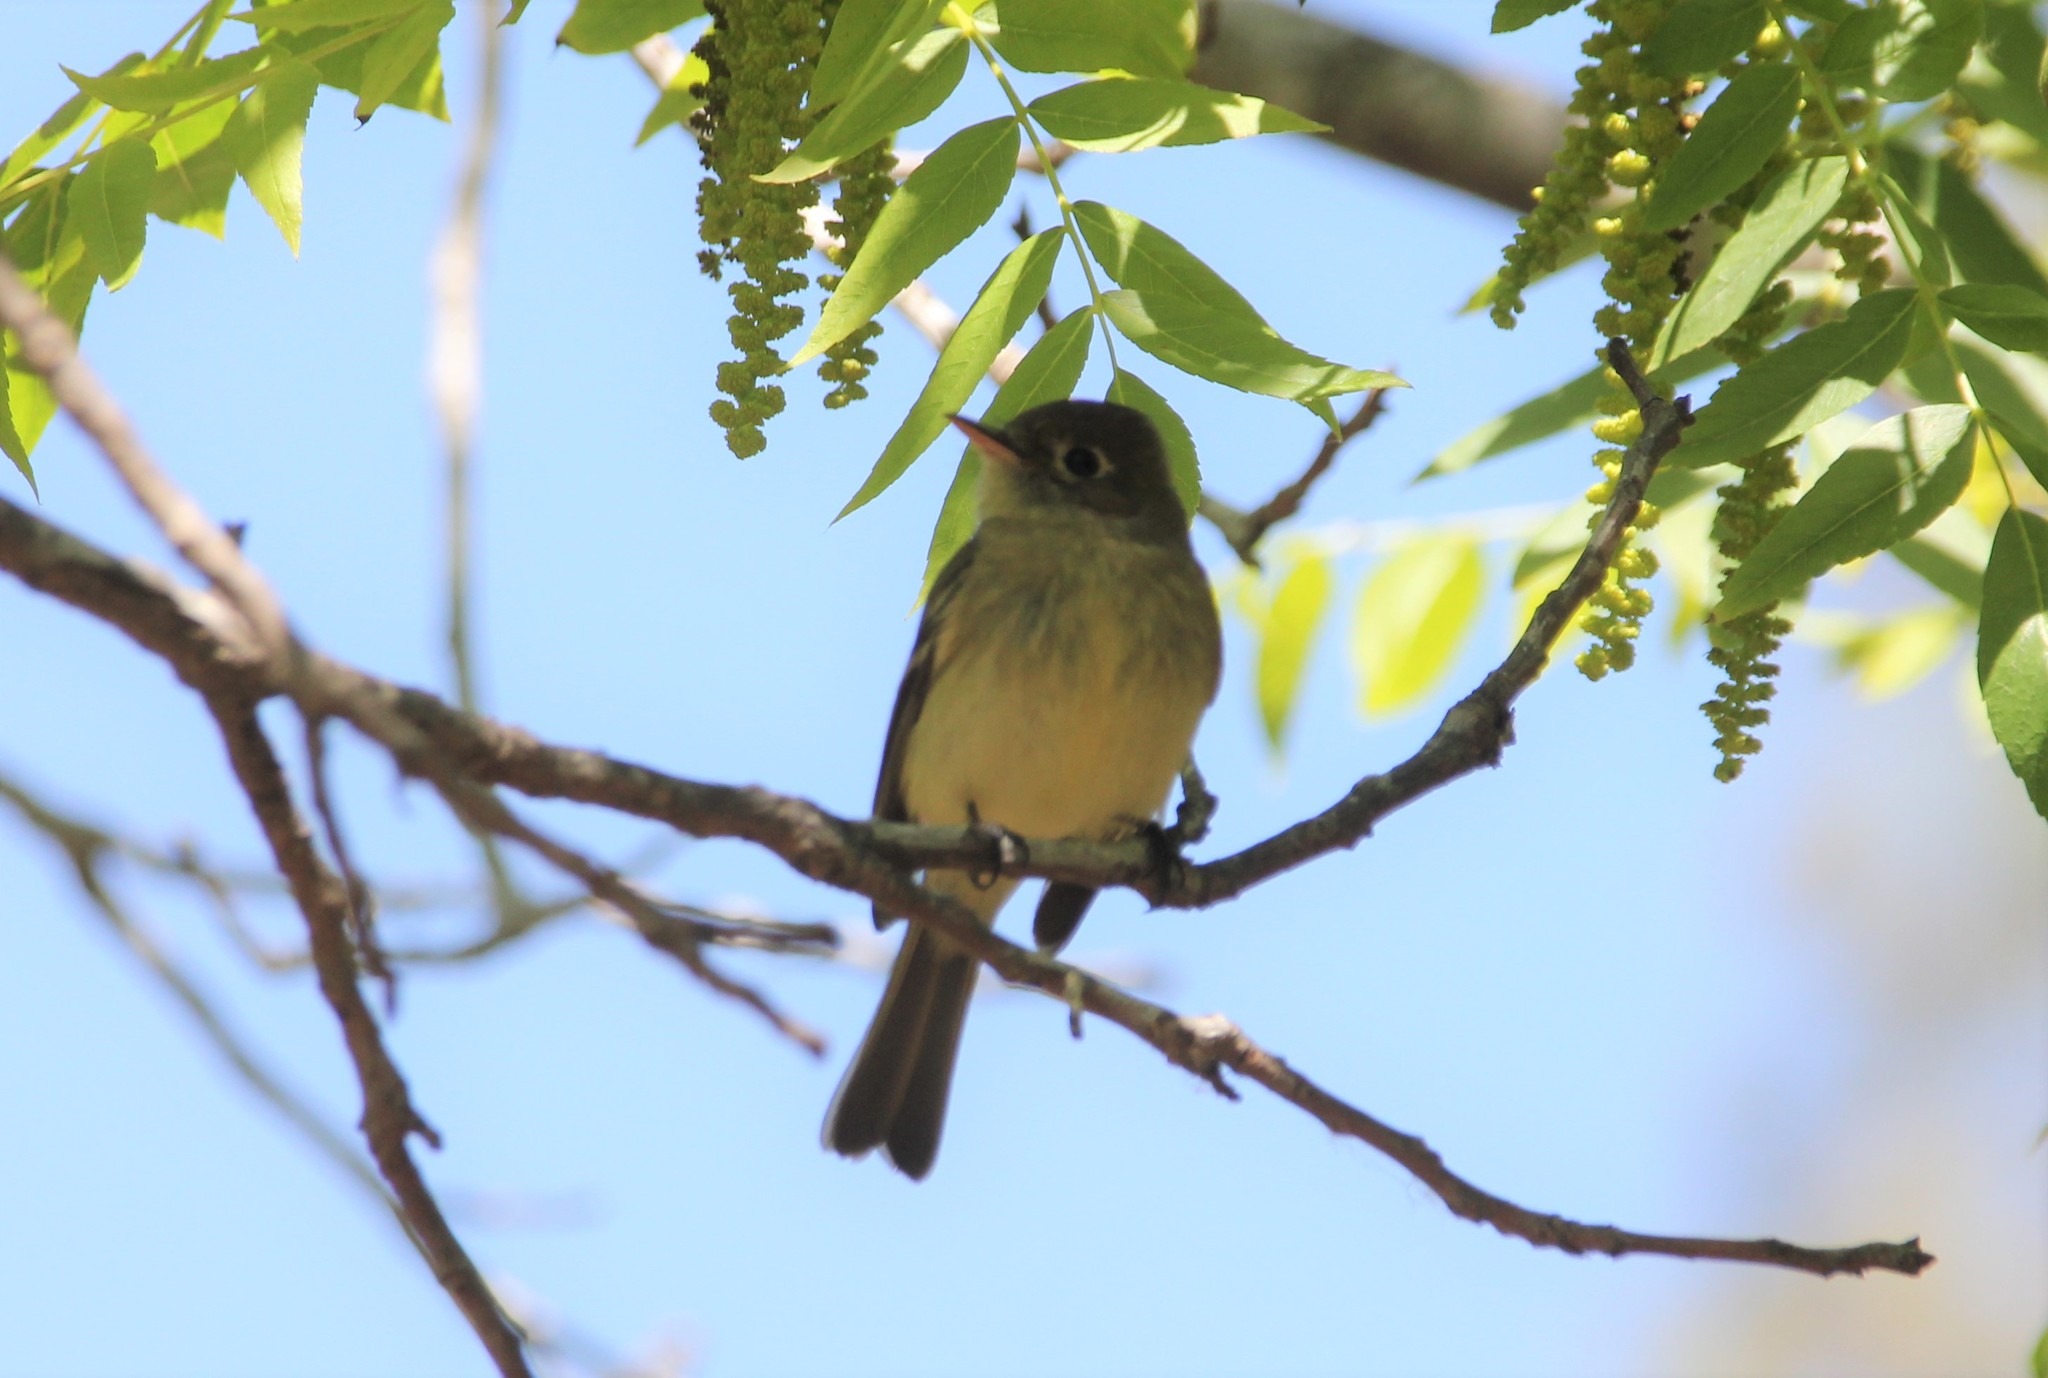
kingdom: Animalia
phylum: Chordata
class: Aves
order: Passeriformes
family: Tyrannidae
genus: Empidonax
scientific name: Empidonax difficilis
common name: Pacific-slope flycatcher
